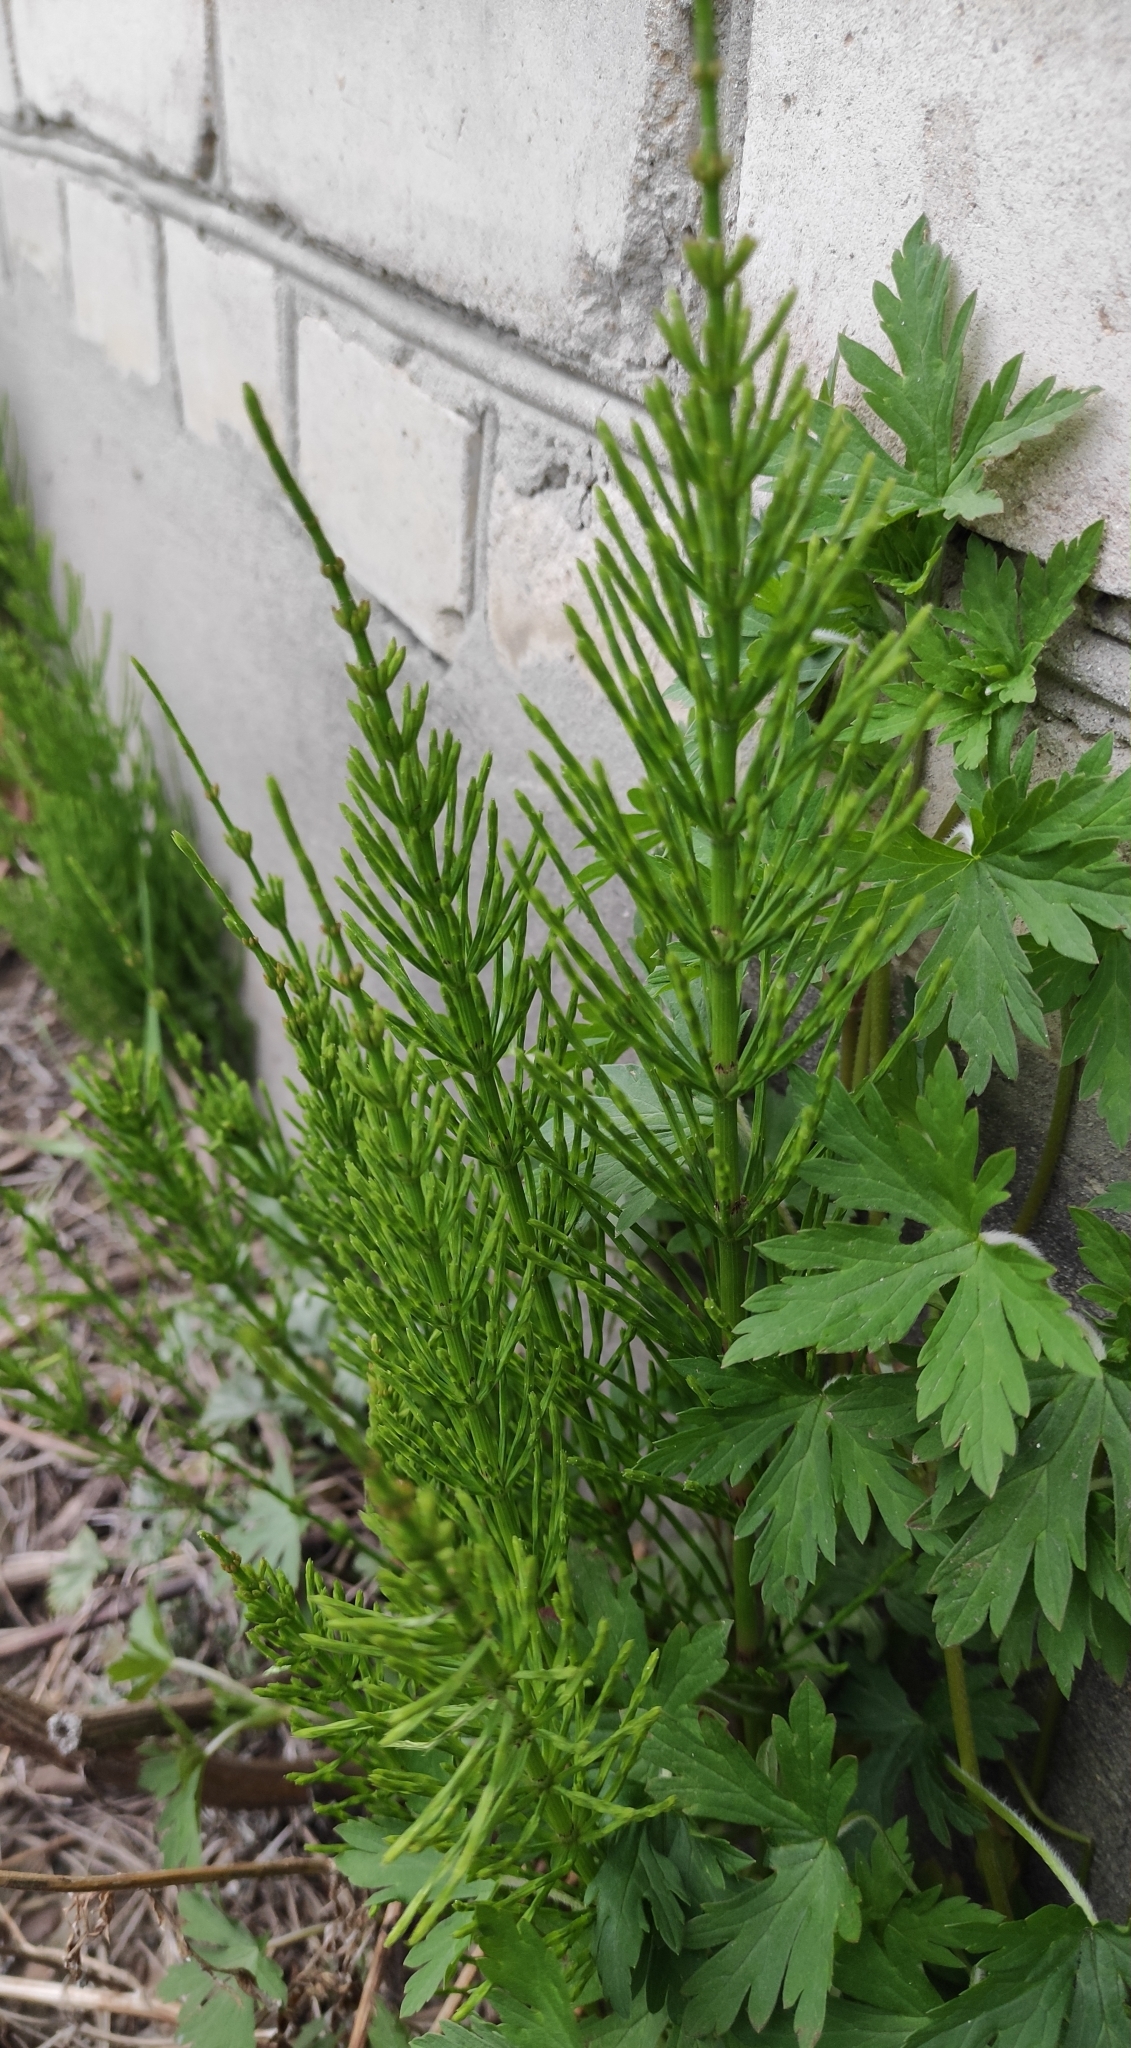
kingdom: Plantae
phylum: Tracheophyta
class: Polypodiopsida
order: Equisetales
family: Equisetaceae
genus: Equisetum
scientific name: Equisetum arvense
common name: Field horsetail
